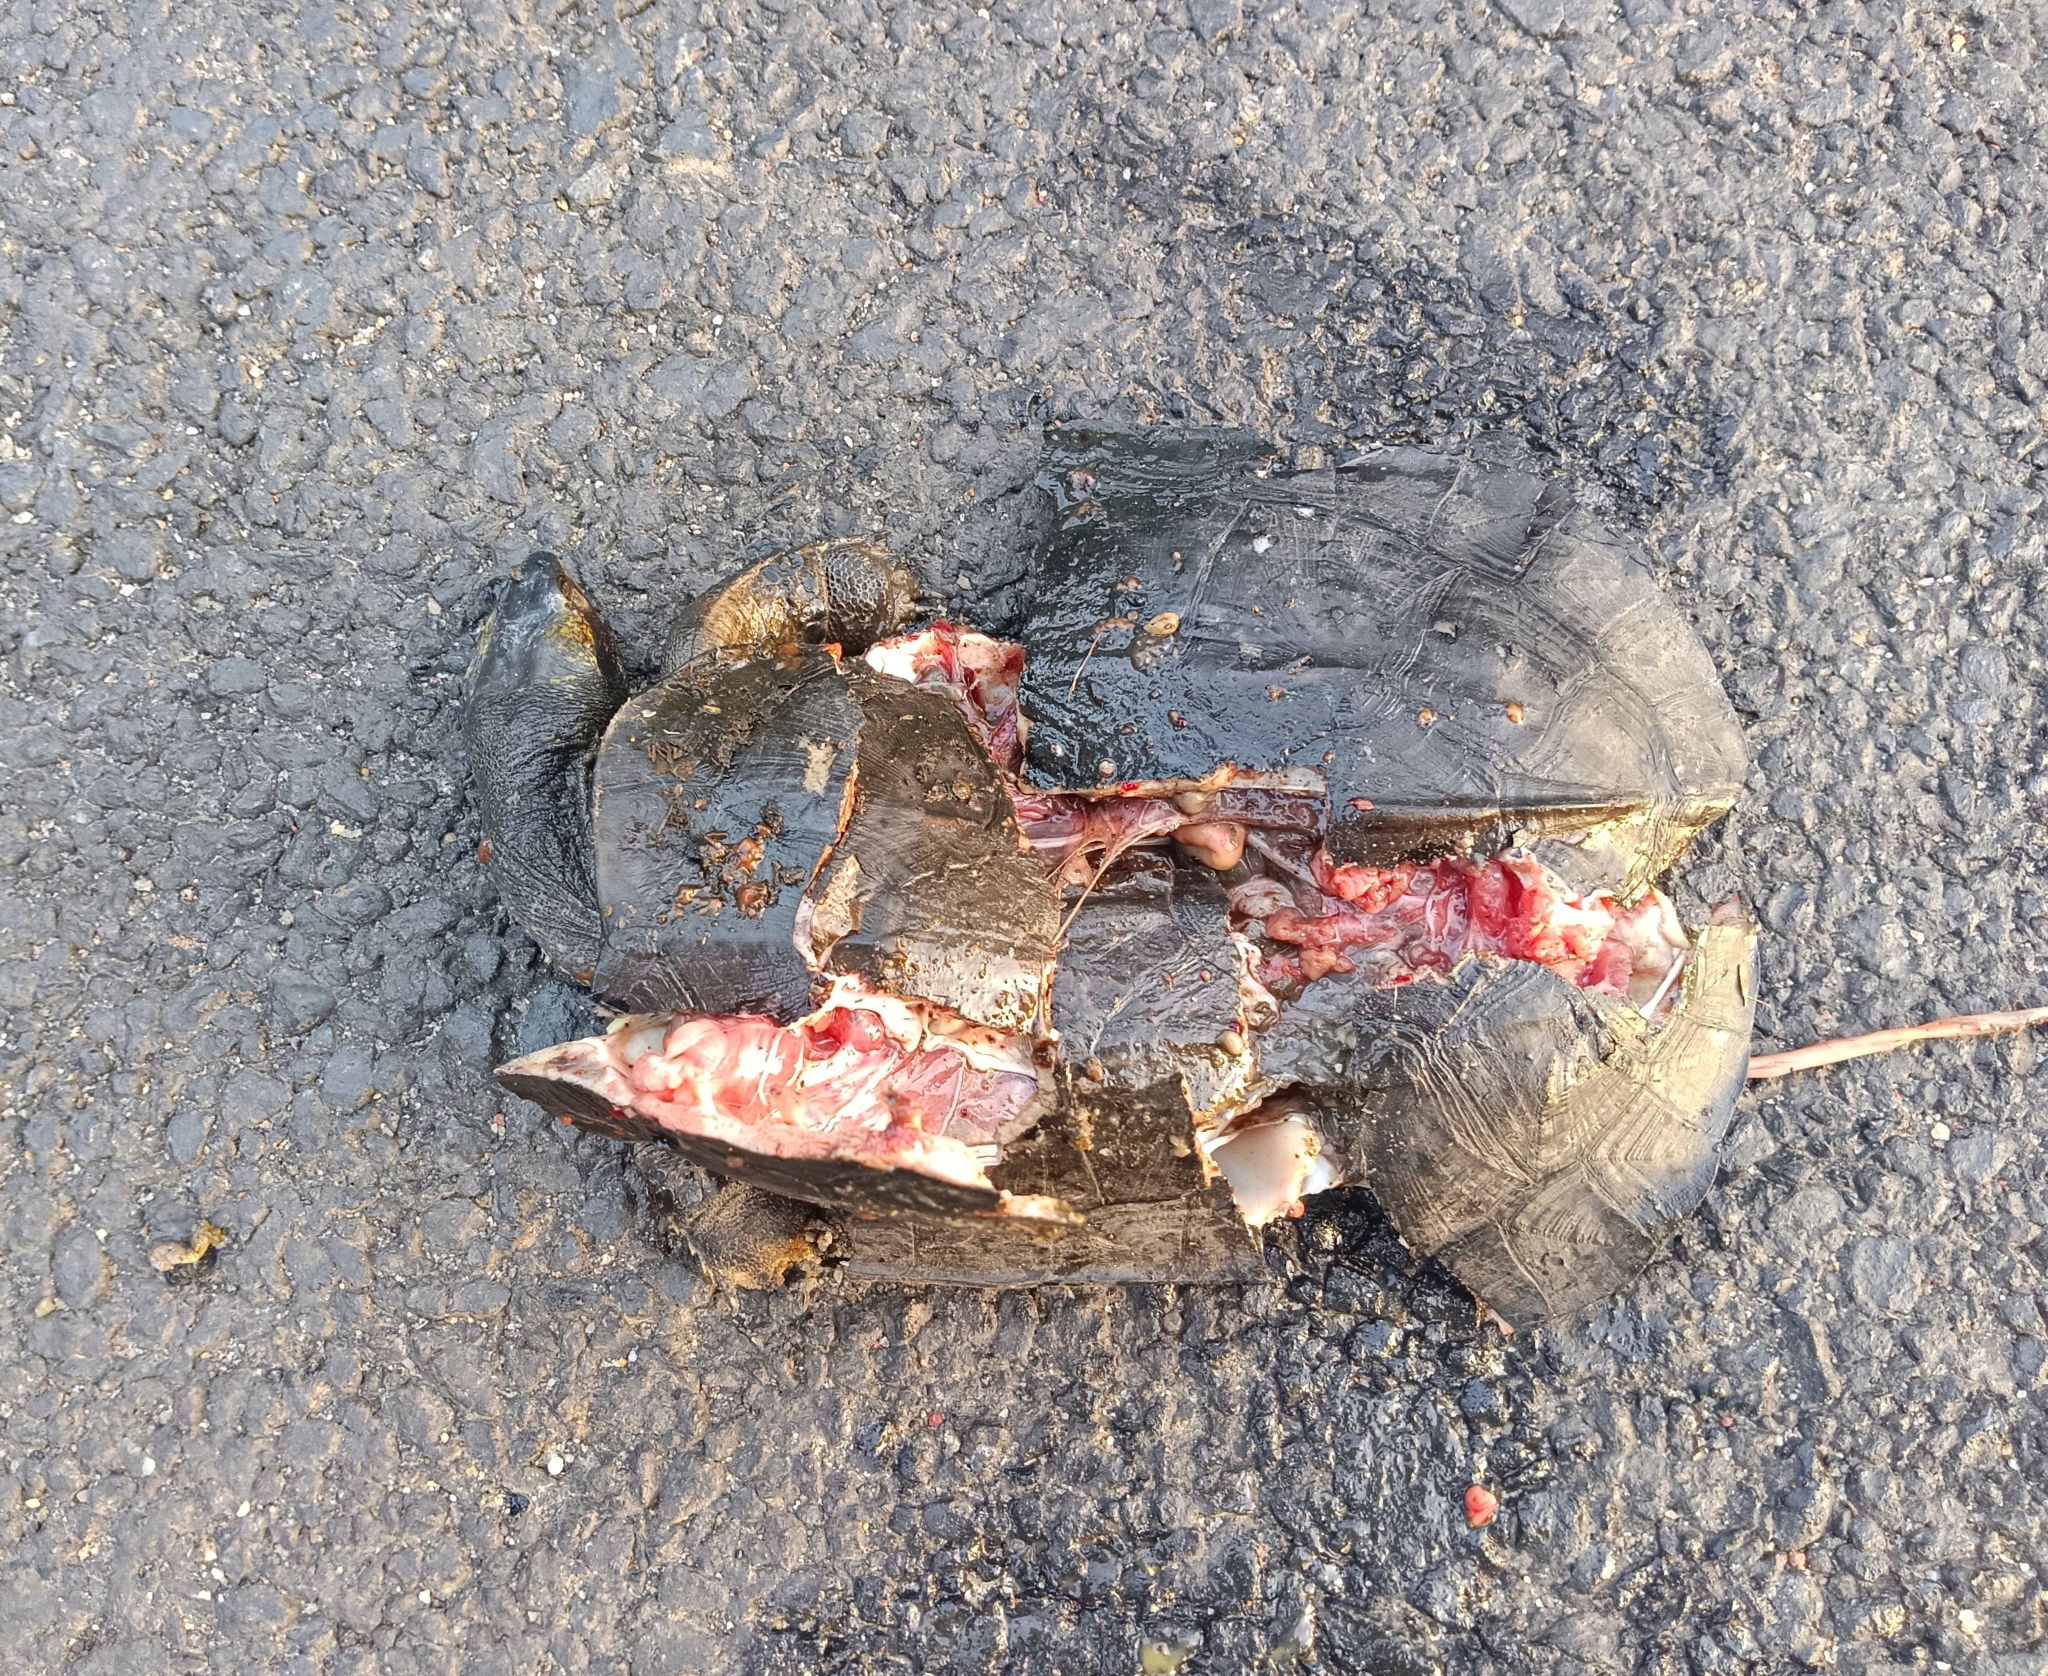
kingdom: Animalia
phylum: Chordata
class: Testudines
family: Geoemydidae
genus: Melanochelys
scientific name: Melanochelys trijuga
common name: Indian black turtle
